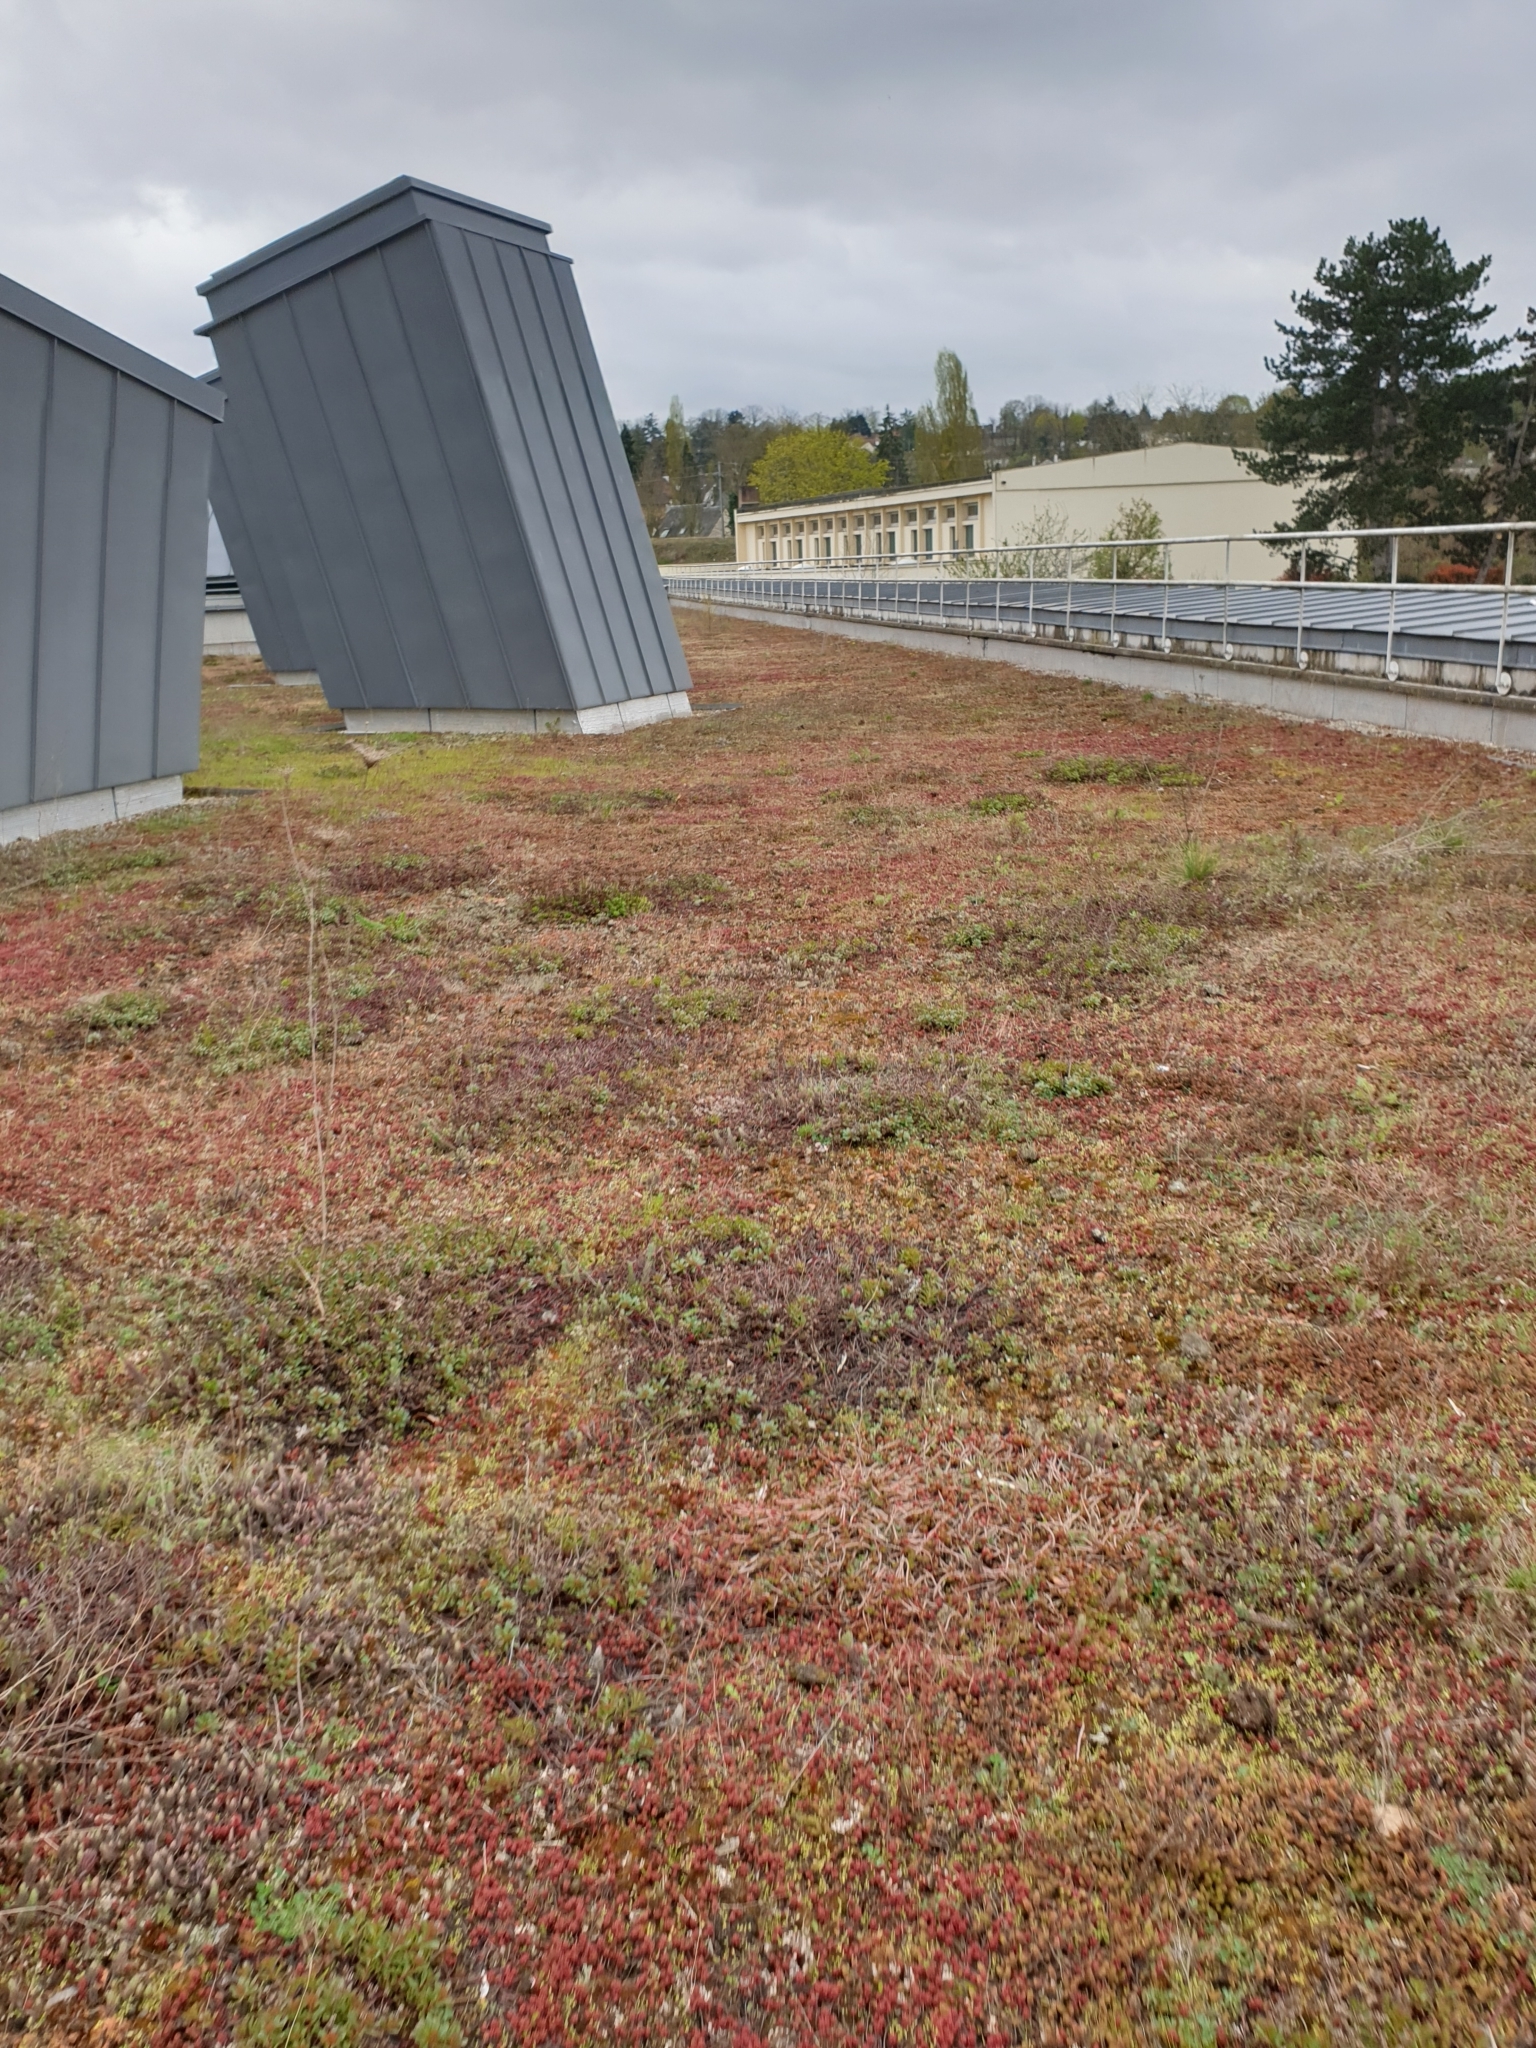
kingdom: Plantae
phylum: Tracheophyta
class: Magnoliopsida
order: Lamiales
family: Scrophulariaceae
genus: Verbascum
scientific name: Verbascum thapsus
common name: Common mullein
